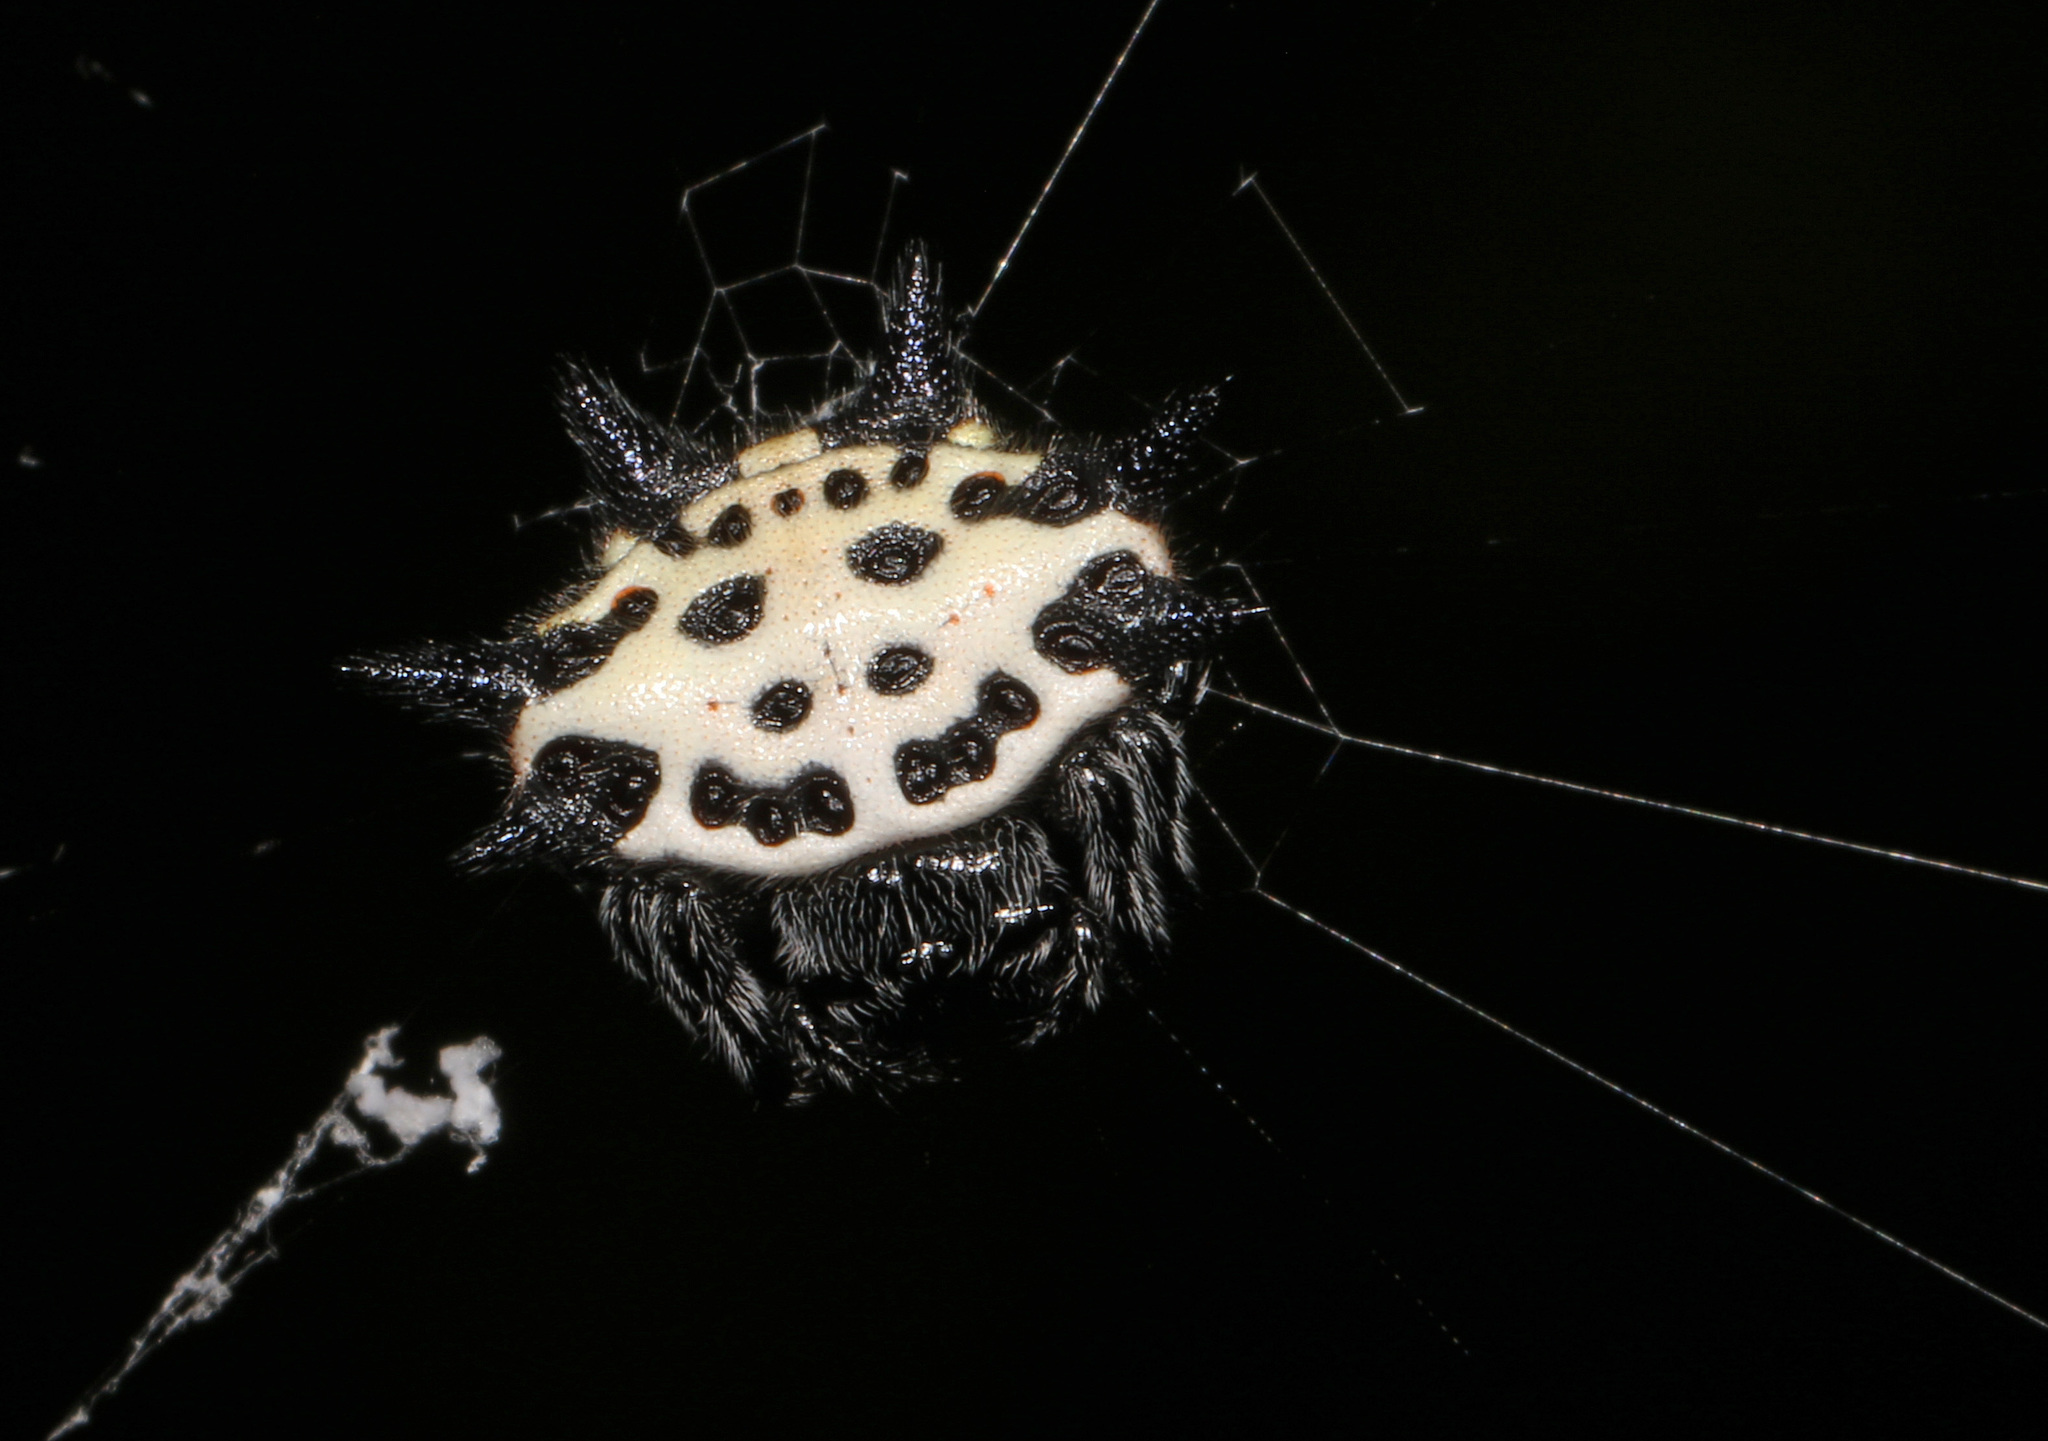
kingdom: Animalia
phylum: Arthropoda
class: Arachnida
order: Araneae
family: Araneidae
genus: Gasteracantha
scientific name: Gasteracantha cancriformis
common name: Orb weavers
